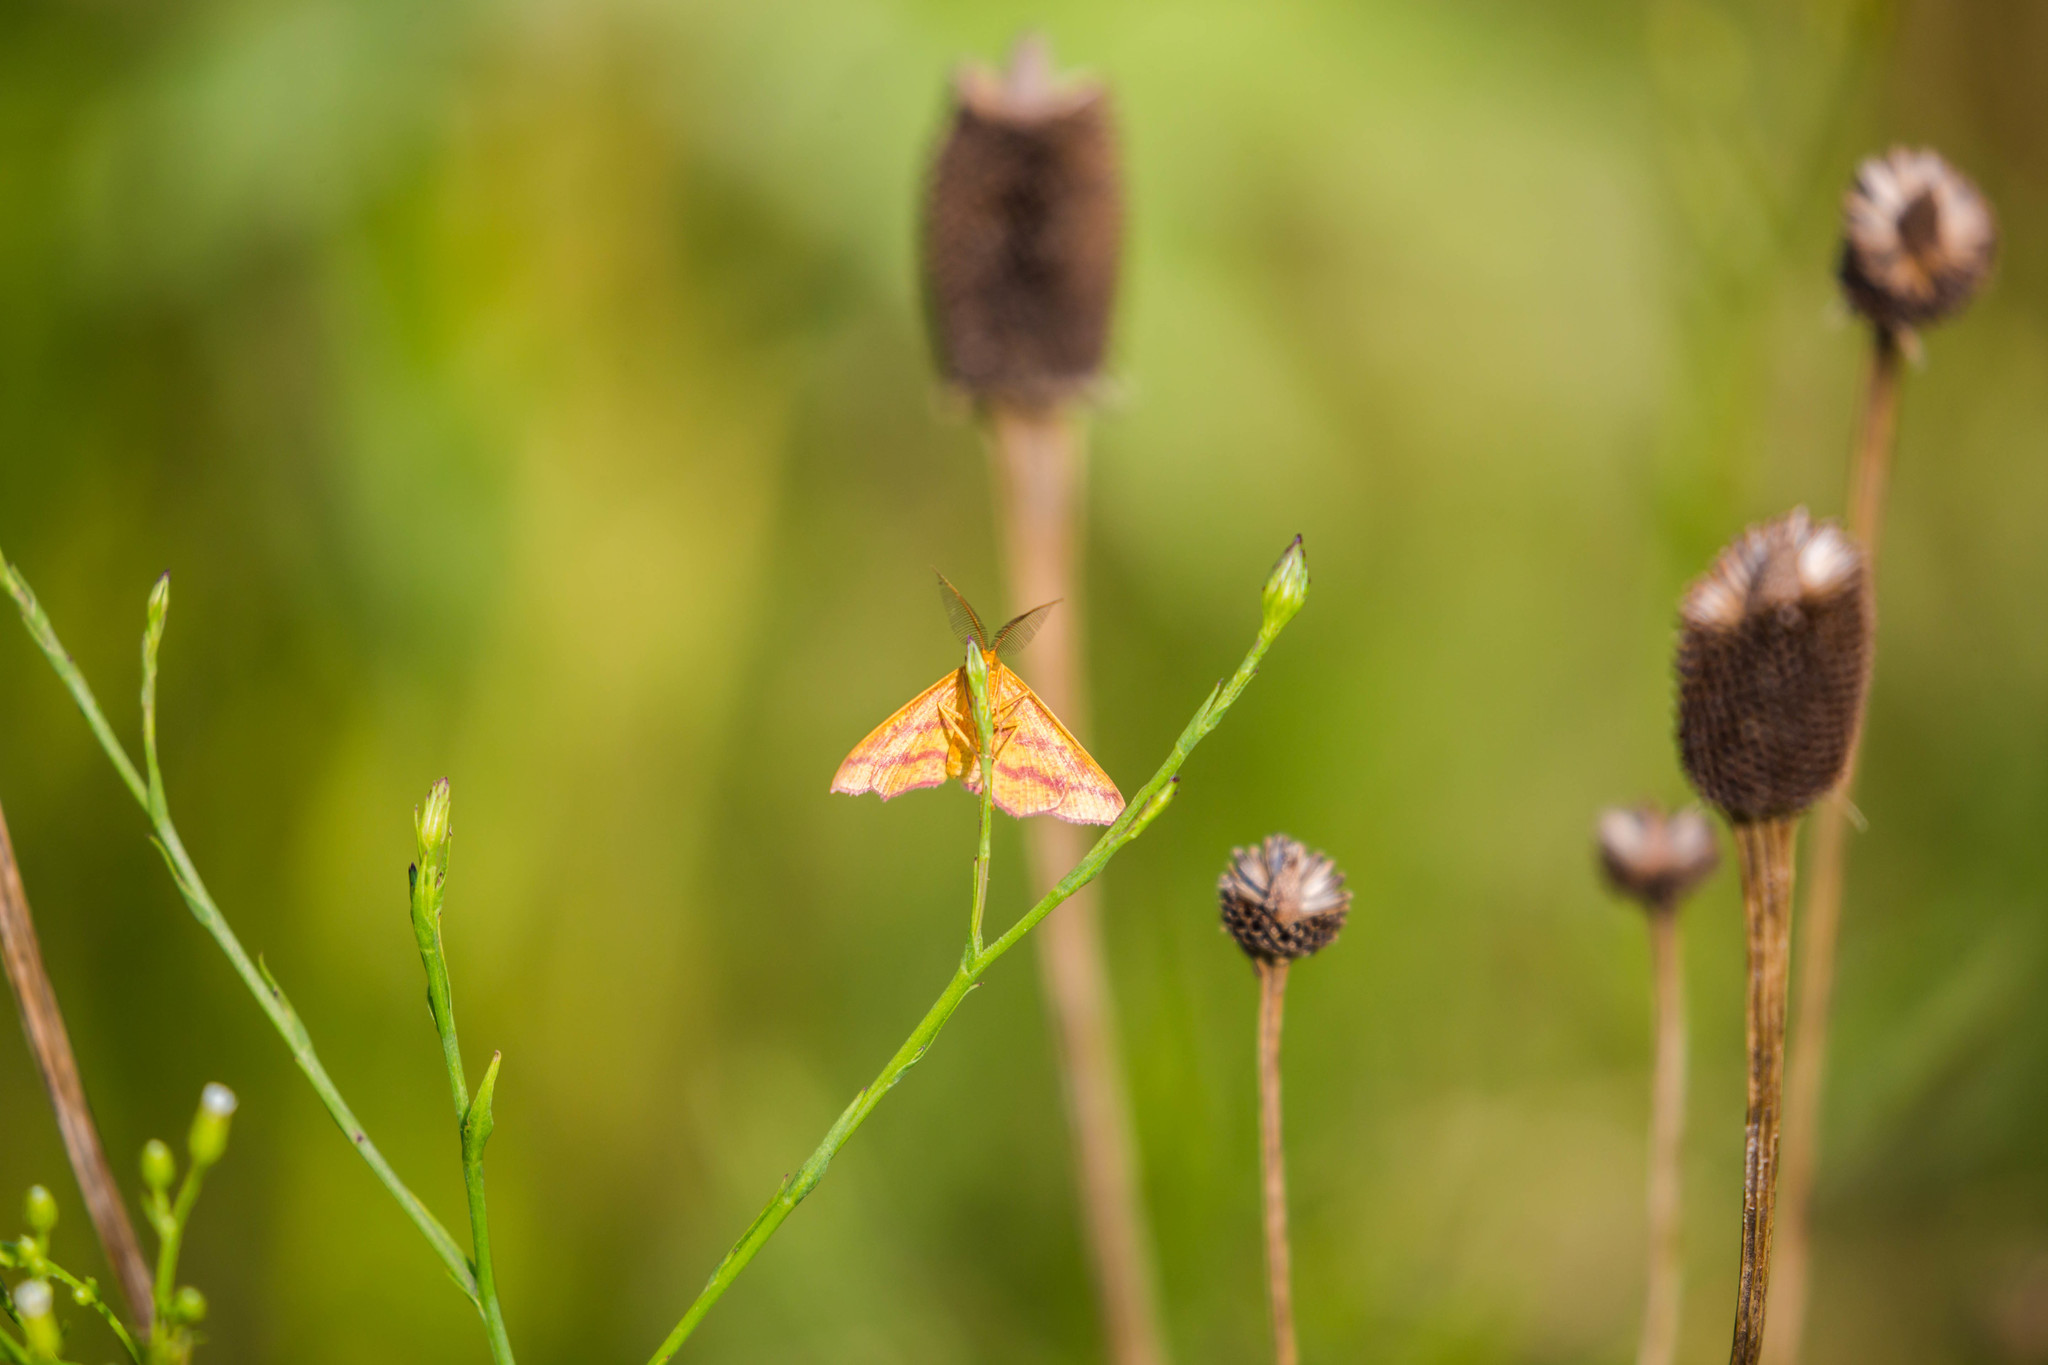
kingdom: Animalia
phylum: Arthropoda
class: Insecta
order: Lepidoptera
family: Geometridae
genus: Haematopis
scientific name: Haematopis grataria
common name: Chickweed geometer
